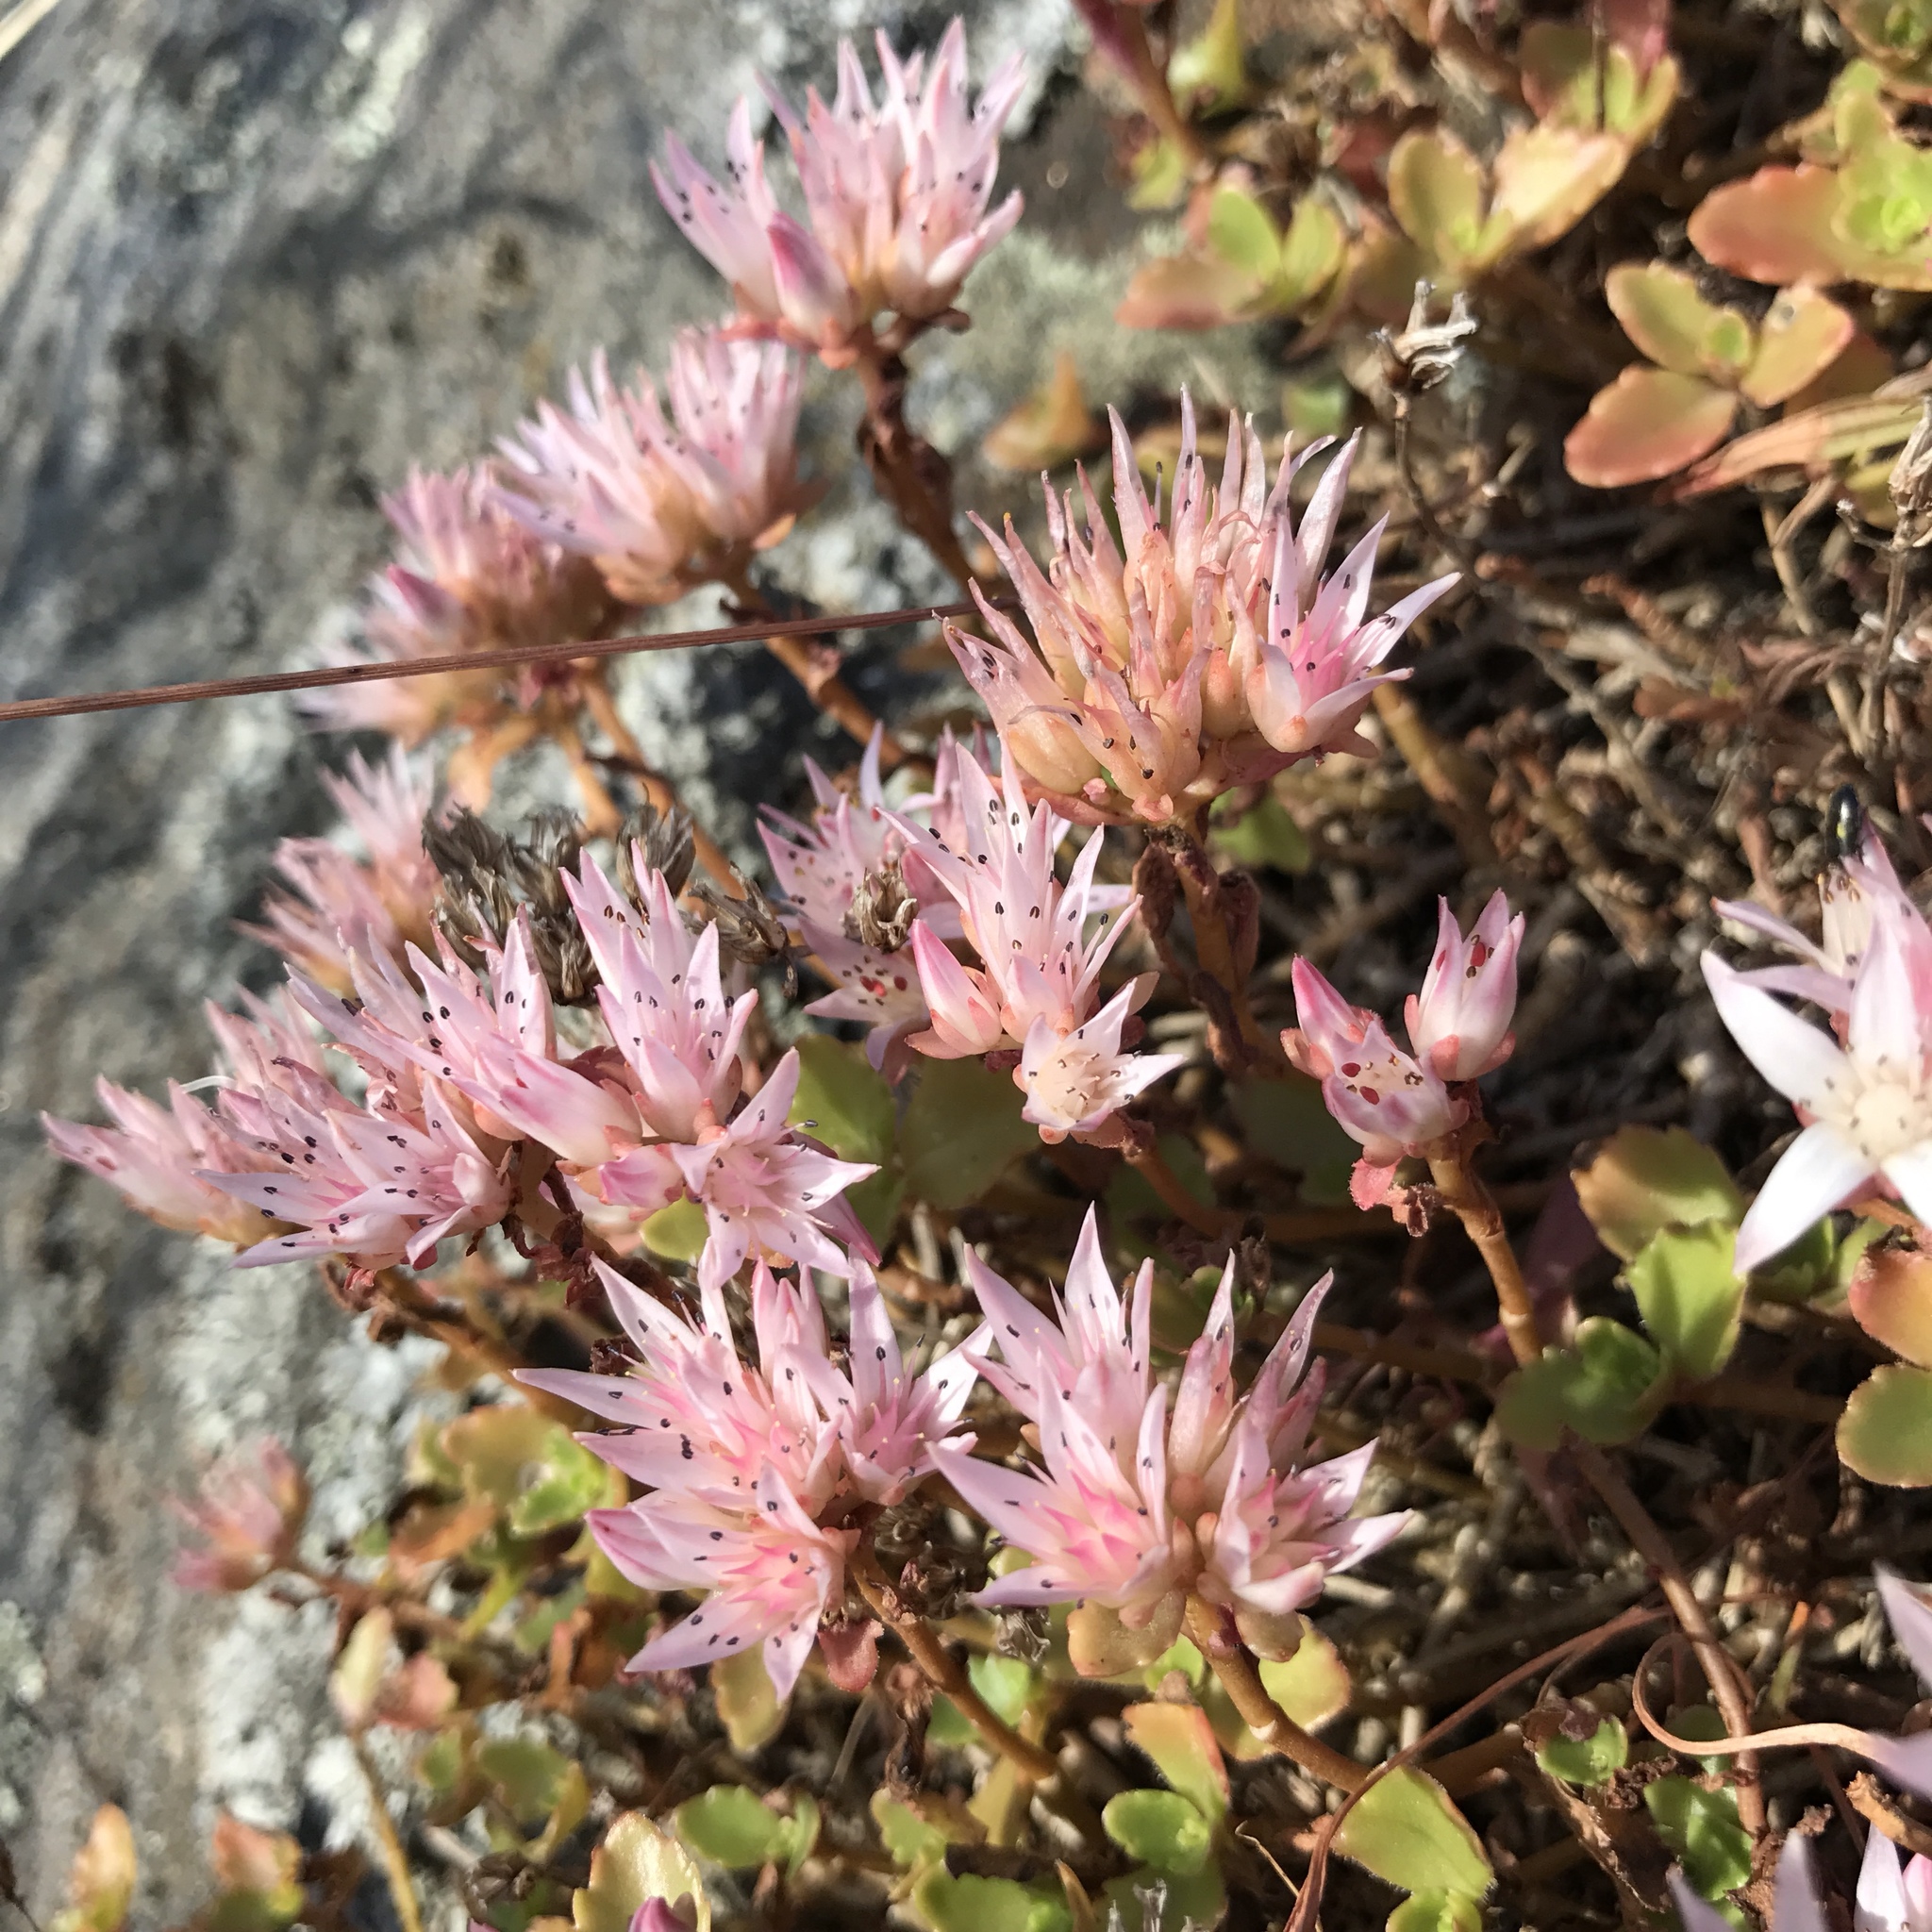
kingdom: Plantae
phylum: Tracheophyta
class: Magnoliopsida
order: Saxifragales
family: Crassulaceae
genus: Phedimus
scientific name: Phedimus spurius
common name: Caucasian stonecrop
